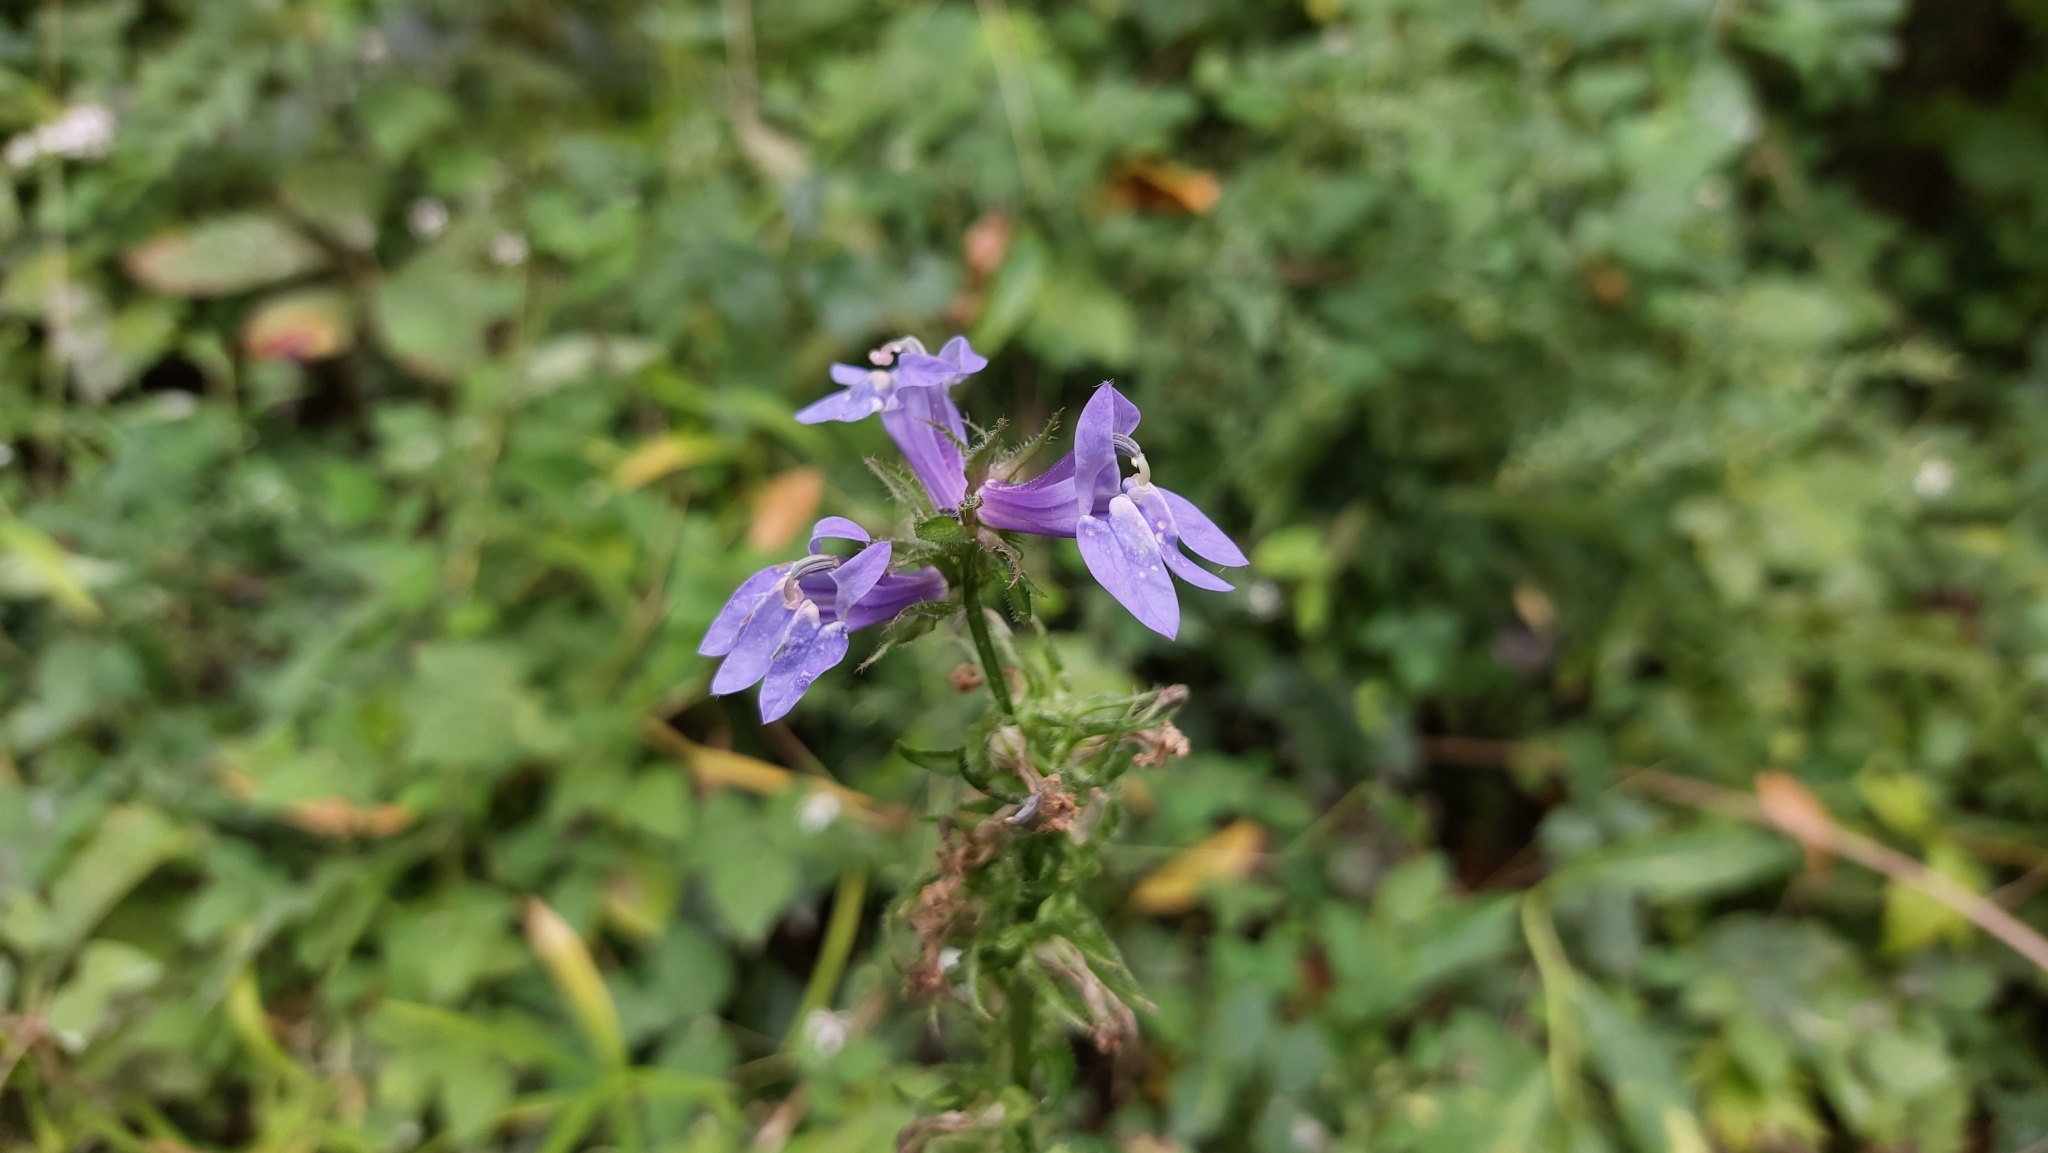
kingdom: Plantae
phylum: Tracheophyta
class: Magnoliopsida
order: Asterales
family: Campanulaceae
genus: Lobelia
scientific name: Lobelia siphilitica
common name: Great lobelia
